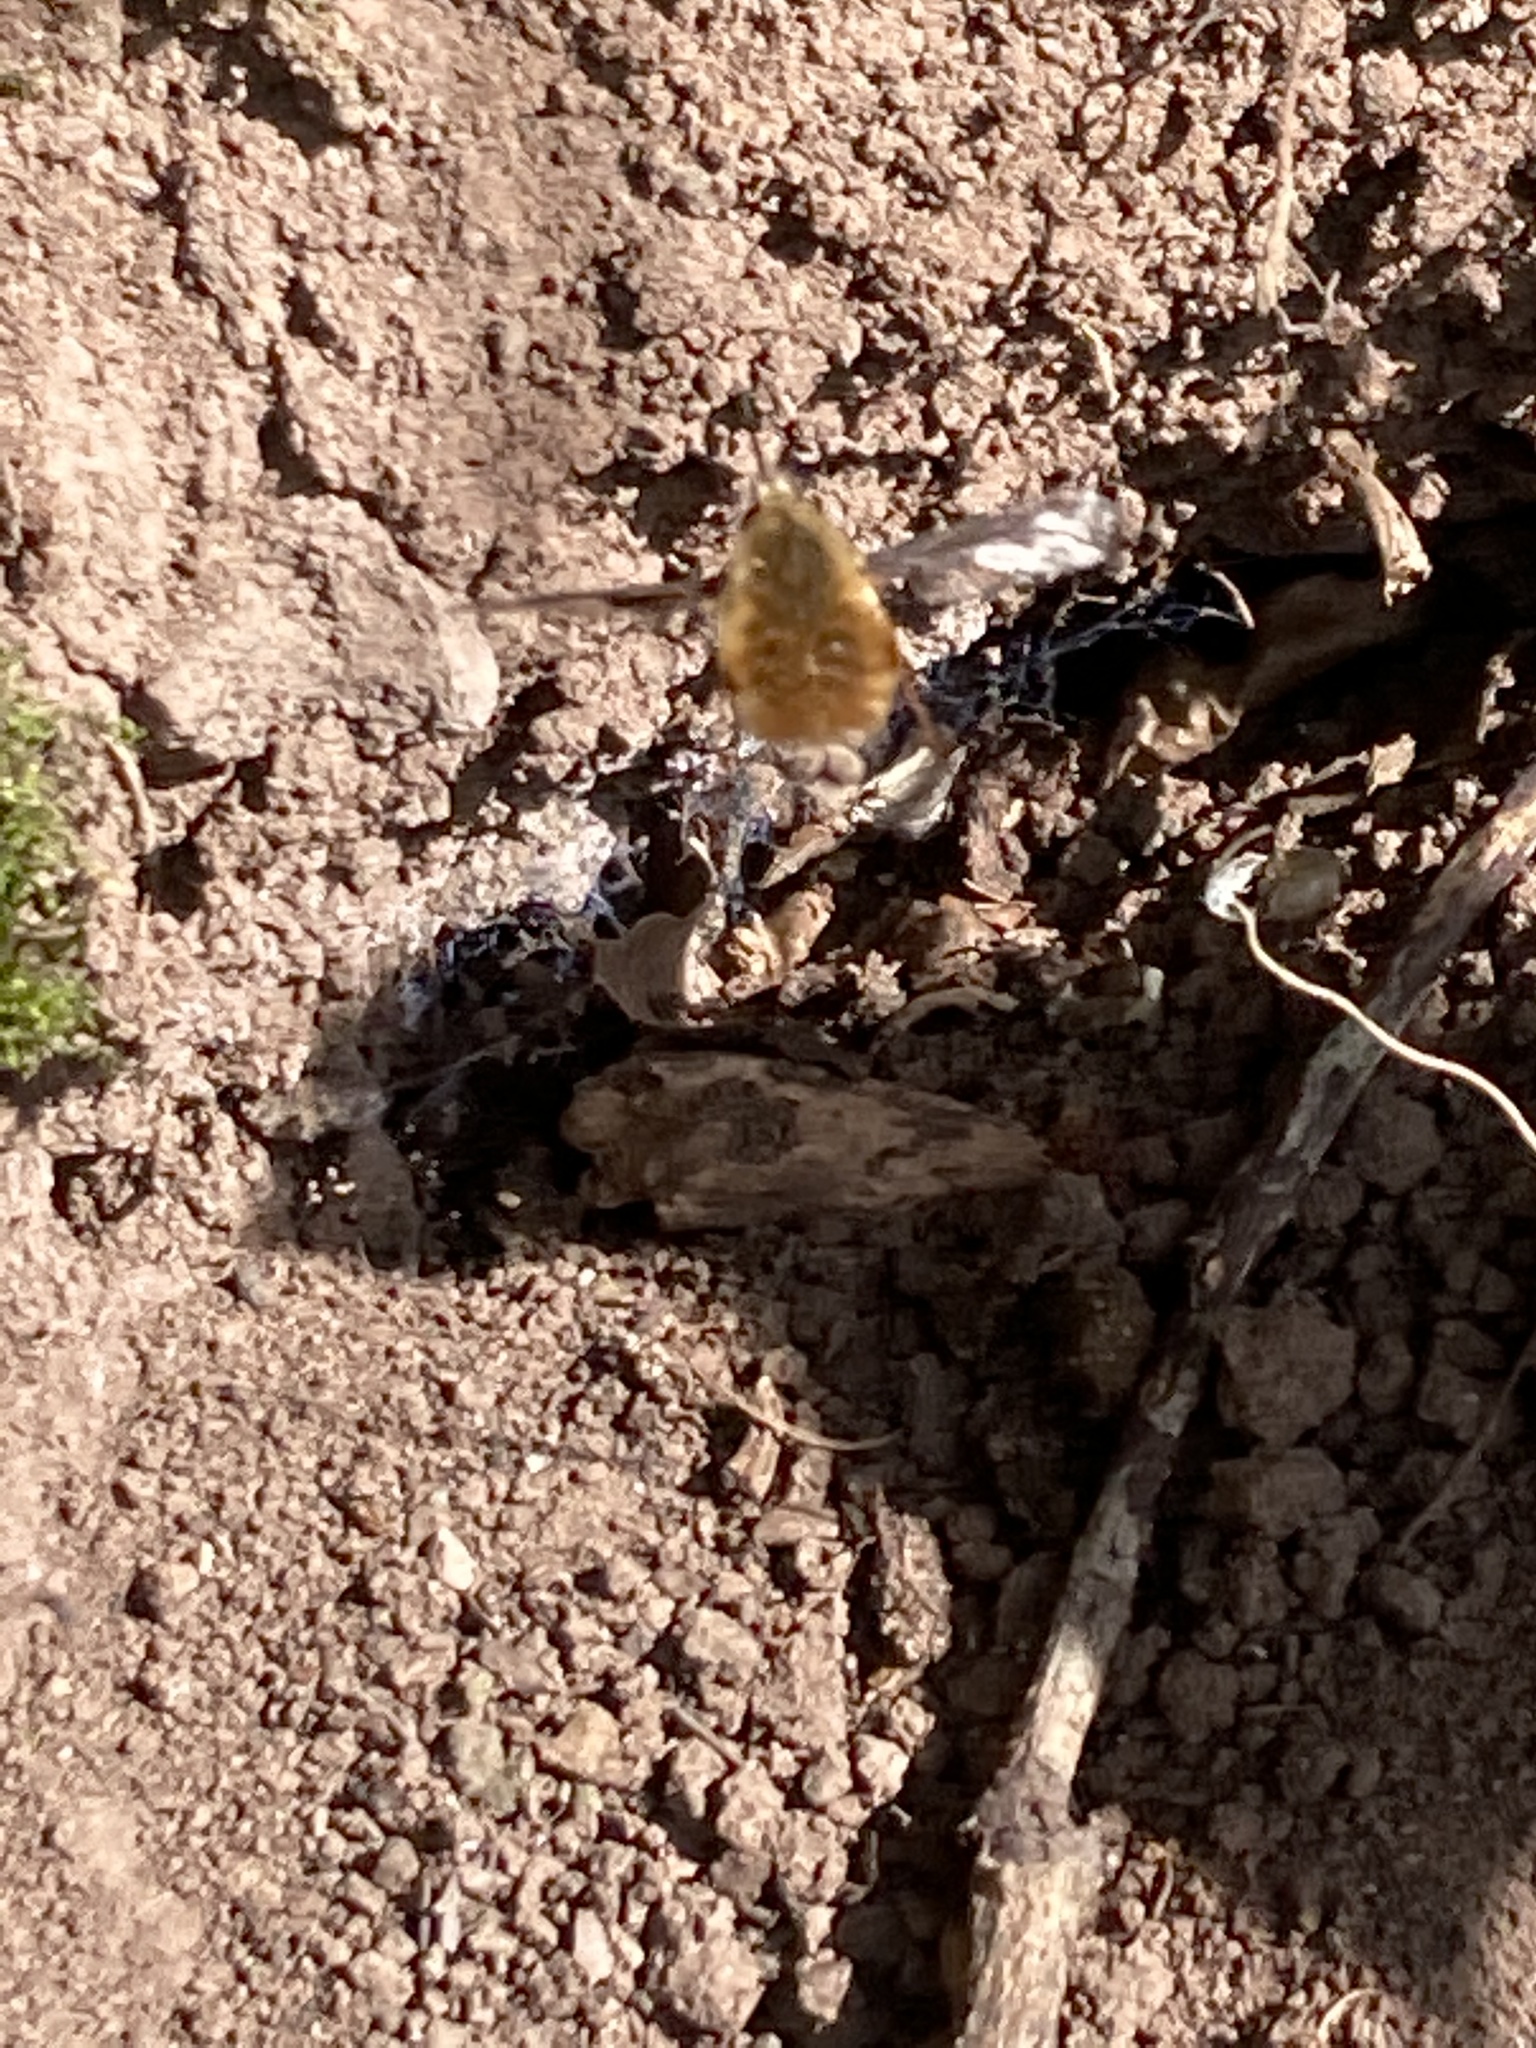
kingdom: Animalia
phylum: Arthropoda
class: Insecta
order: Diptera
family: Bombyliidae
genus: Bombylius
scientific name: Bombylius major
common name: Bee fly
